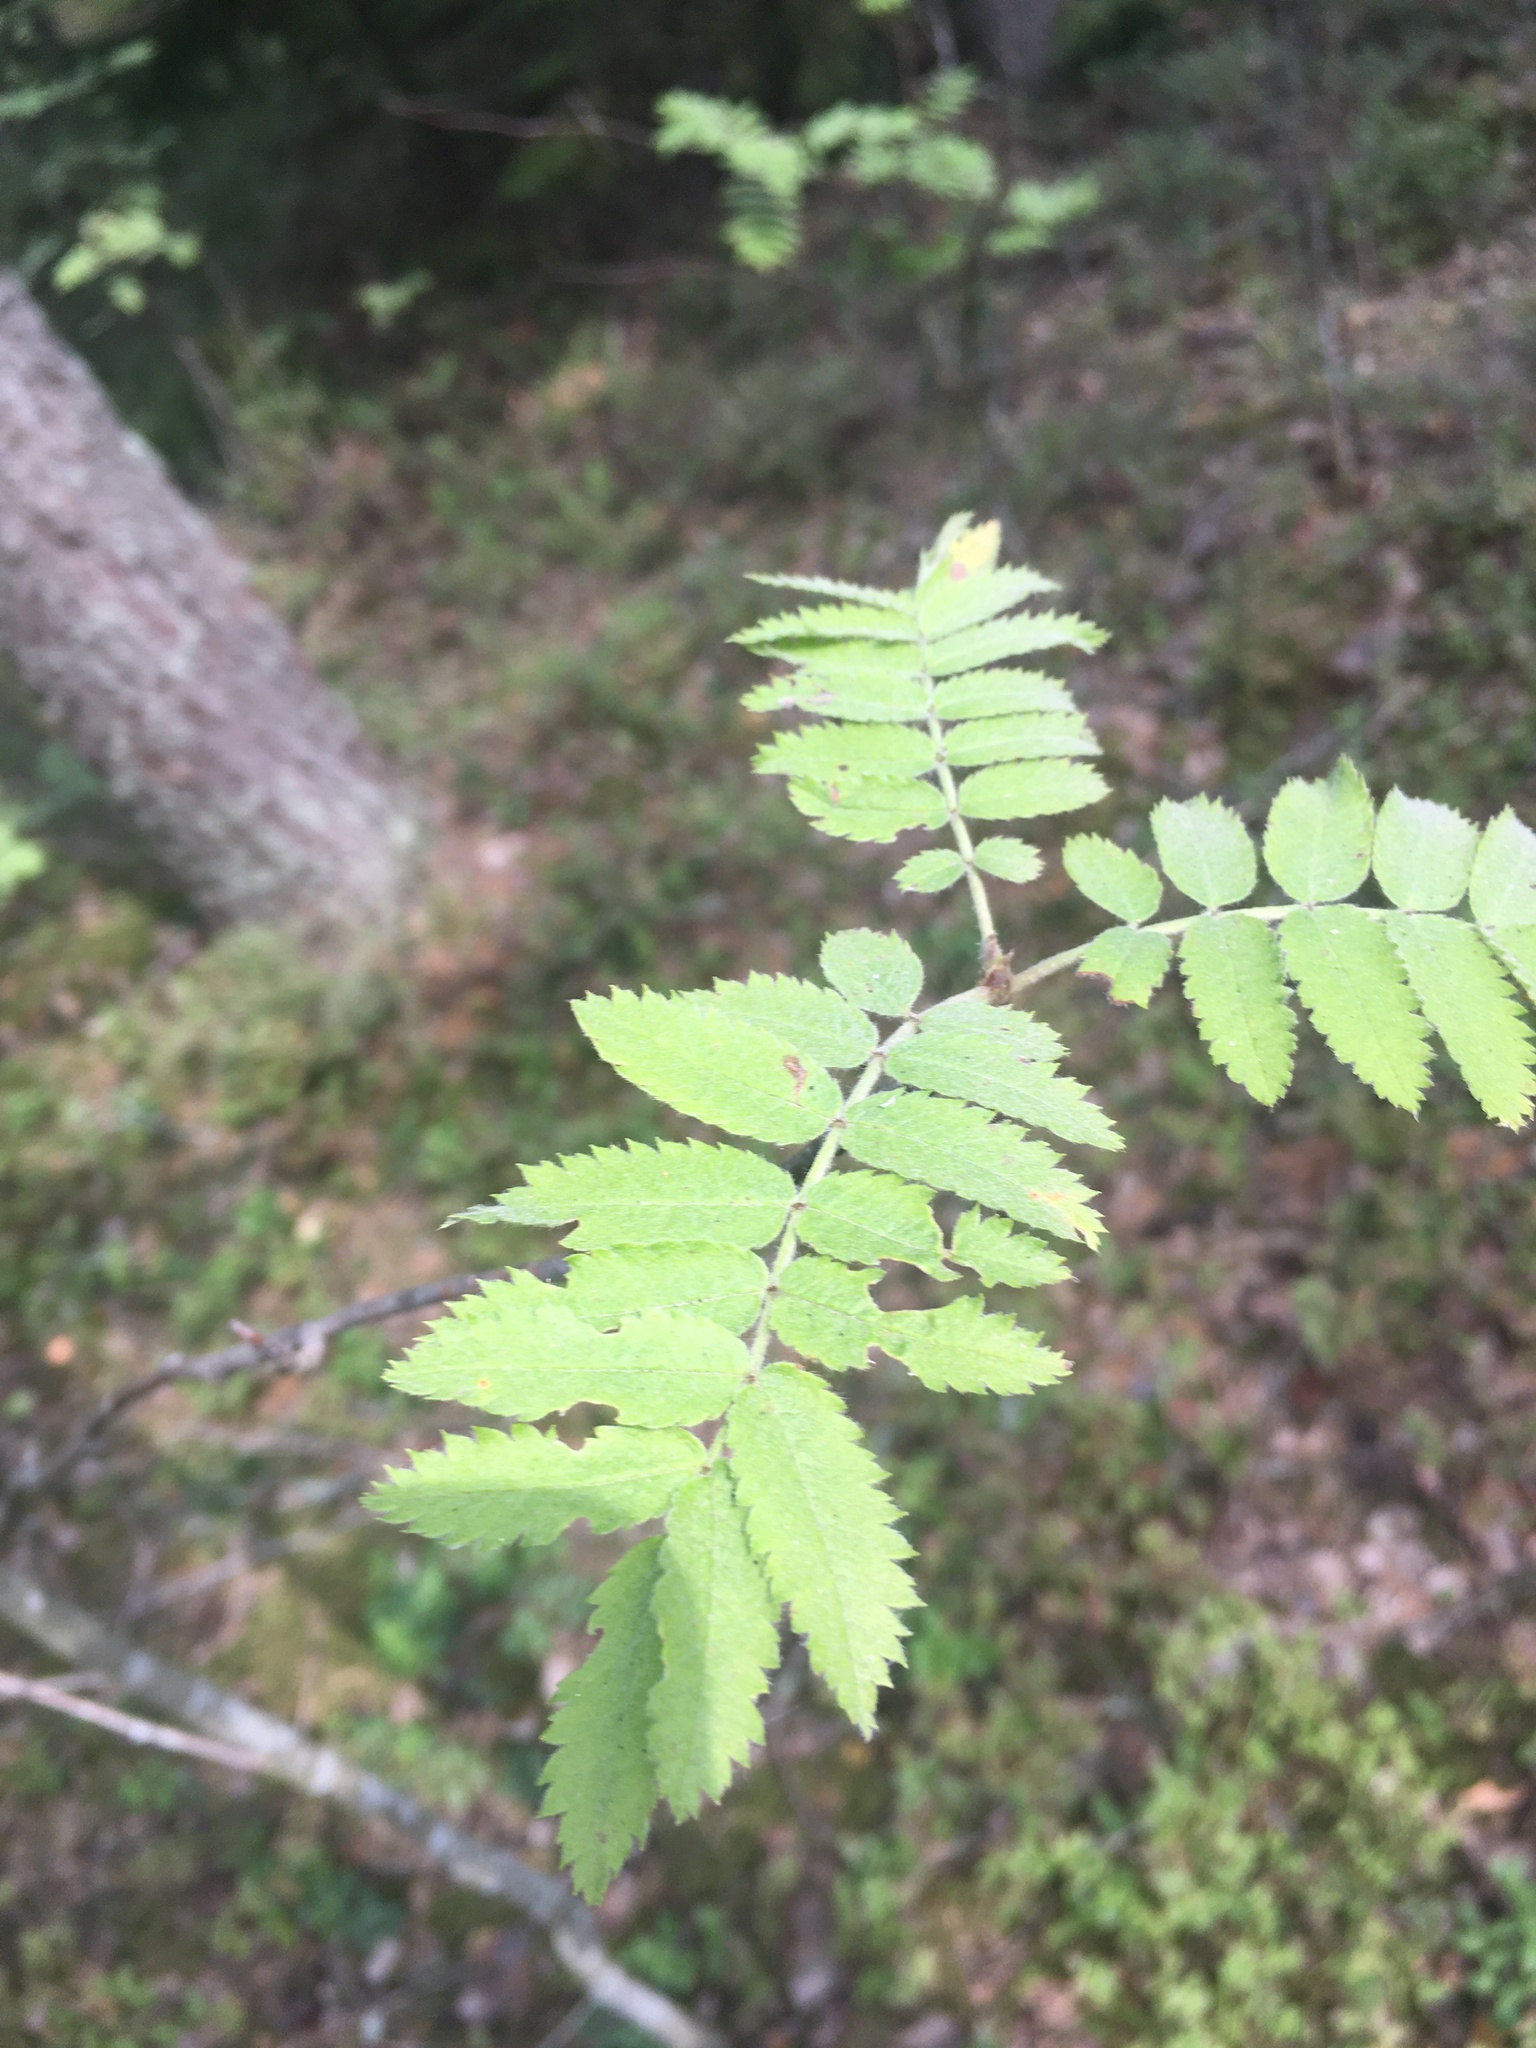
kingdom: Plantae
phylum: Tracheophyta
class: Magnoliopsida
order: Rosales
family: Rosaceae
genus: Sorbus
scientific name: Sorbus aucuparia
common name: Rowan
